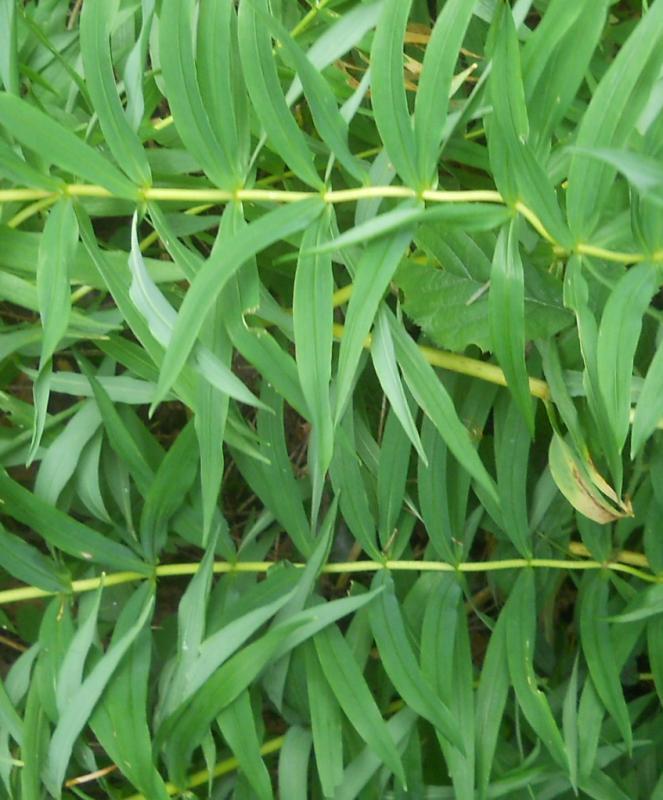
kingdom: Plantae
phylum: Tracheophyta
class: Liliopsida
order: Asparagales
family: Asparagaceae
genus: Polygonatum
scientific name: Polygonatum verticillatum
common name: Whorled solomon's-seal
